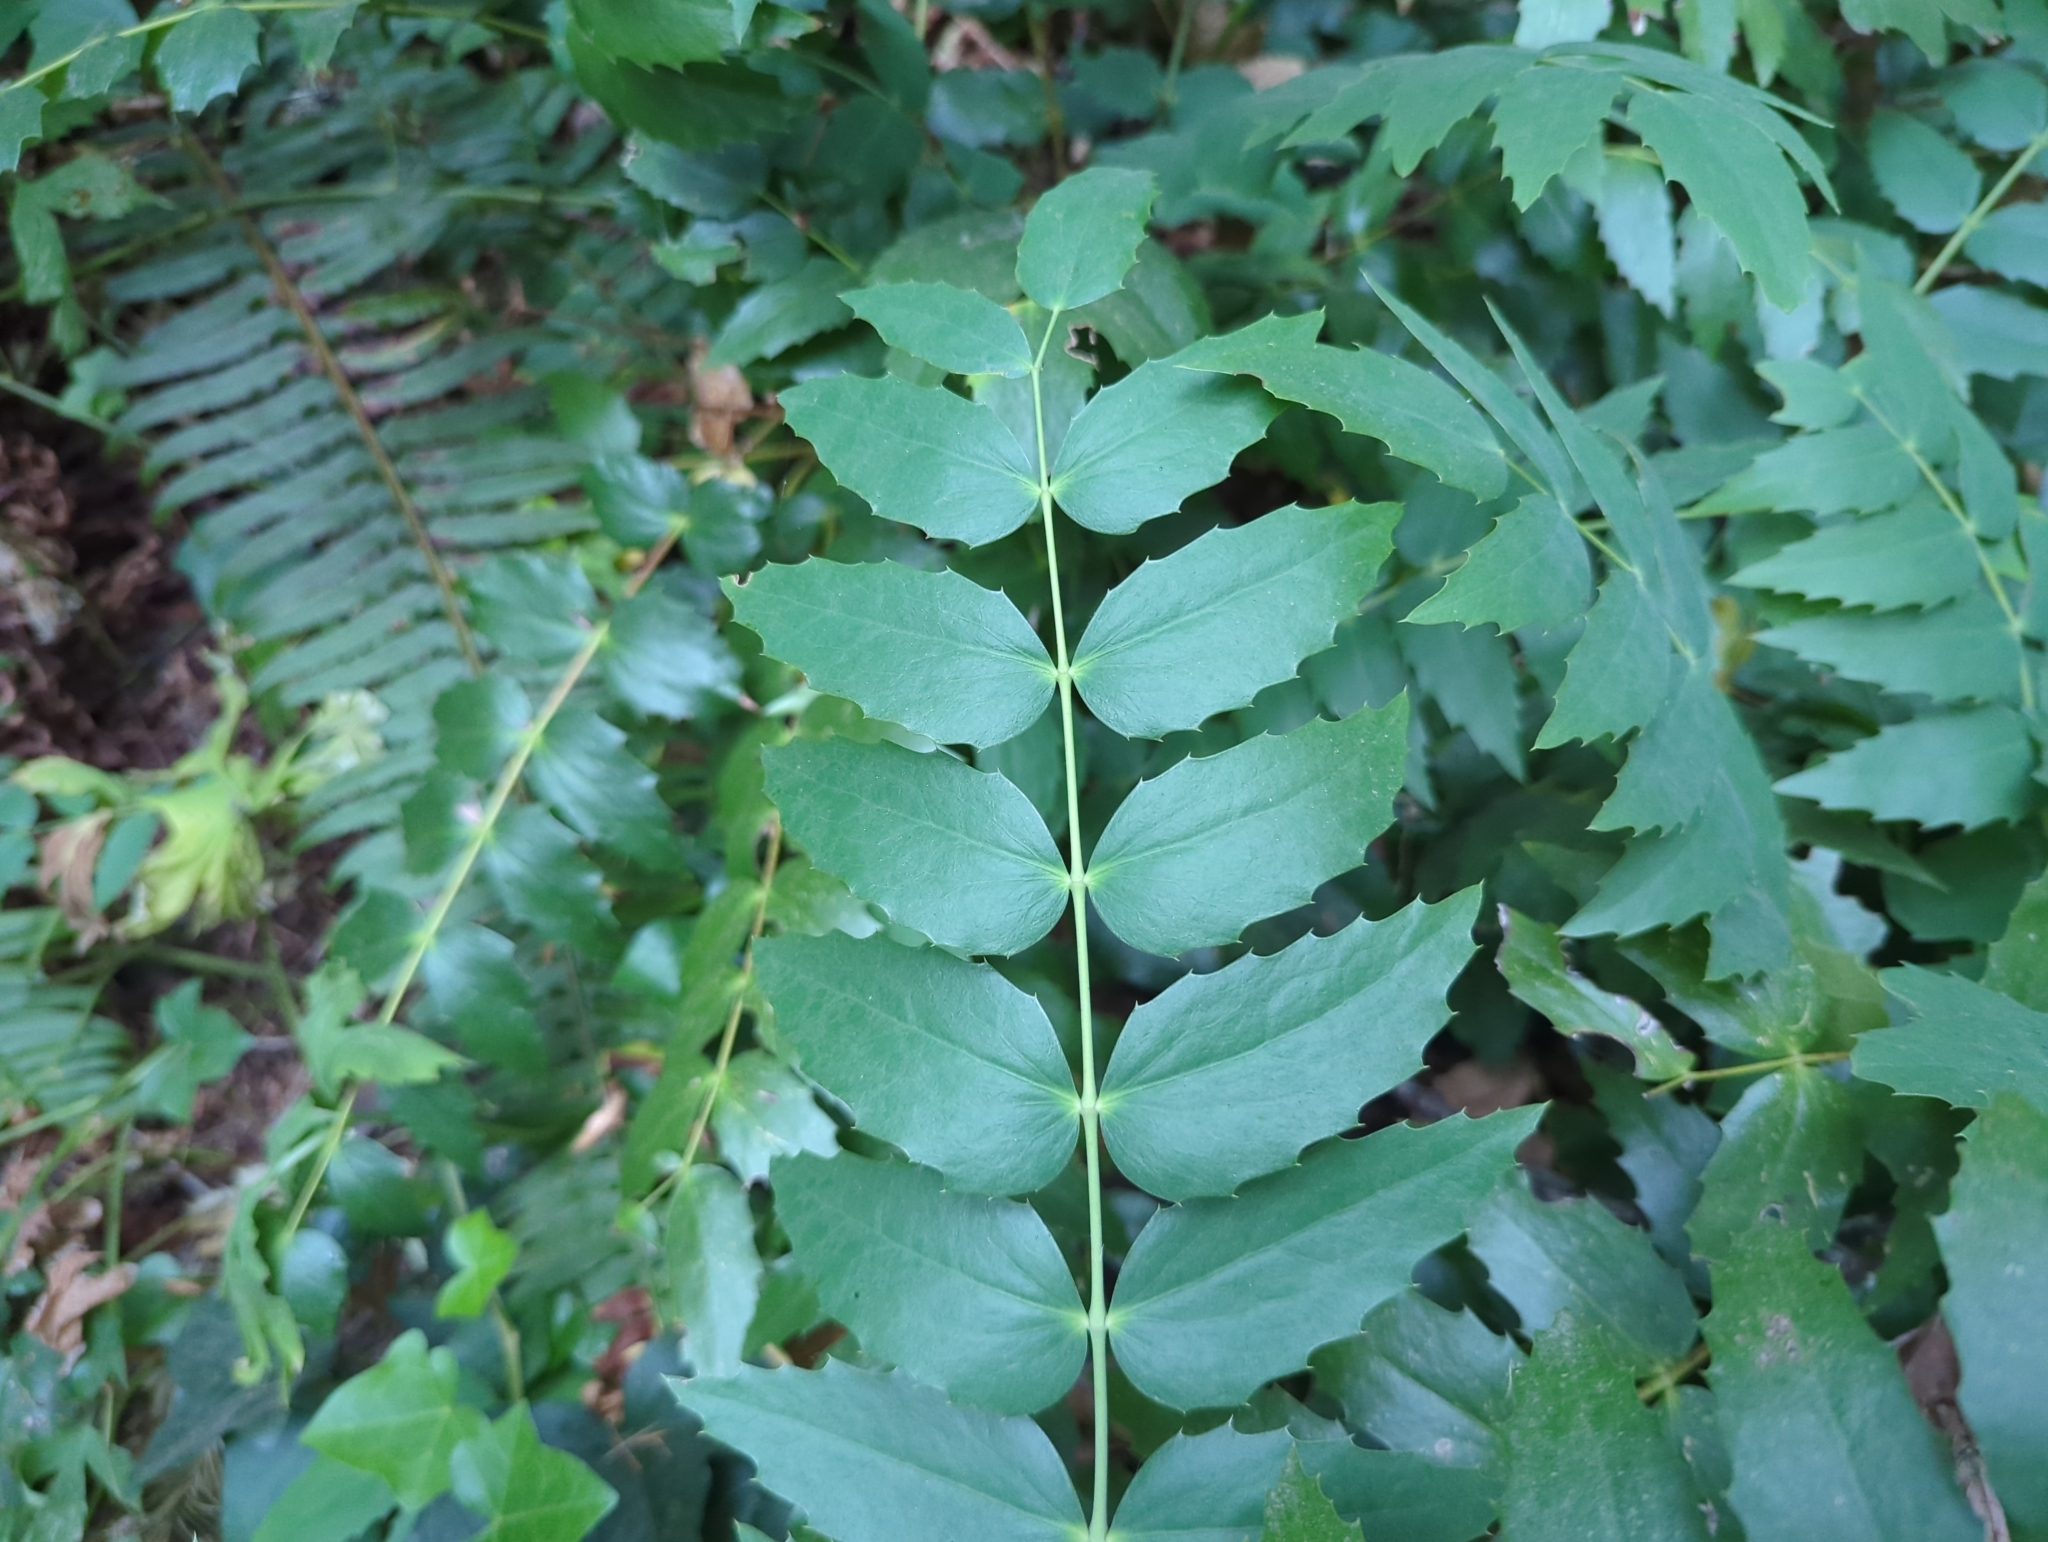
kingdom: Plantae
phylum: Tracheophyta
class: Magnoliopsida
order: Ranunculales
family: Berberidaceae
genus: Mahonia
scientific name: Mahonia nervosa
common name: Cascade oregon-grape
